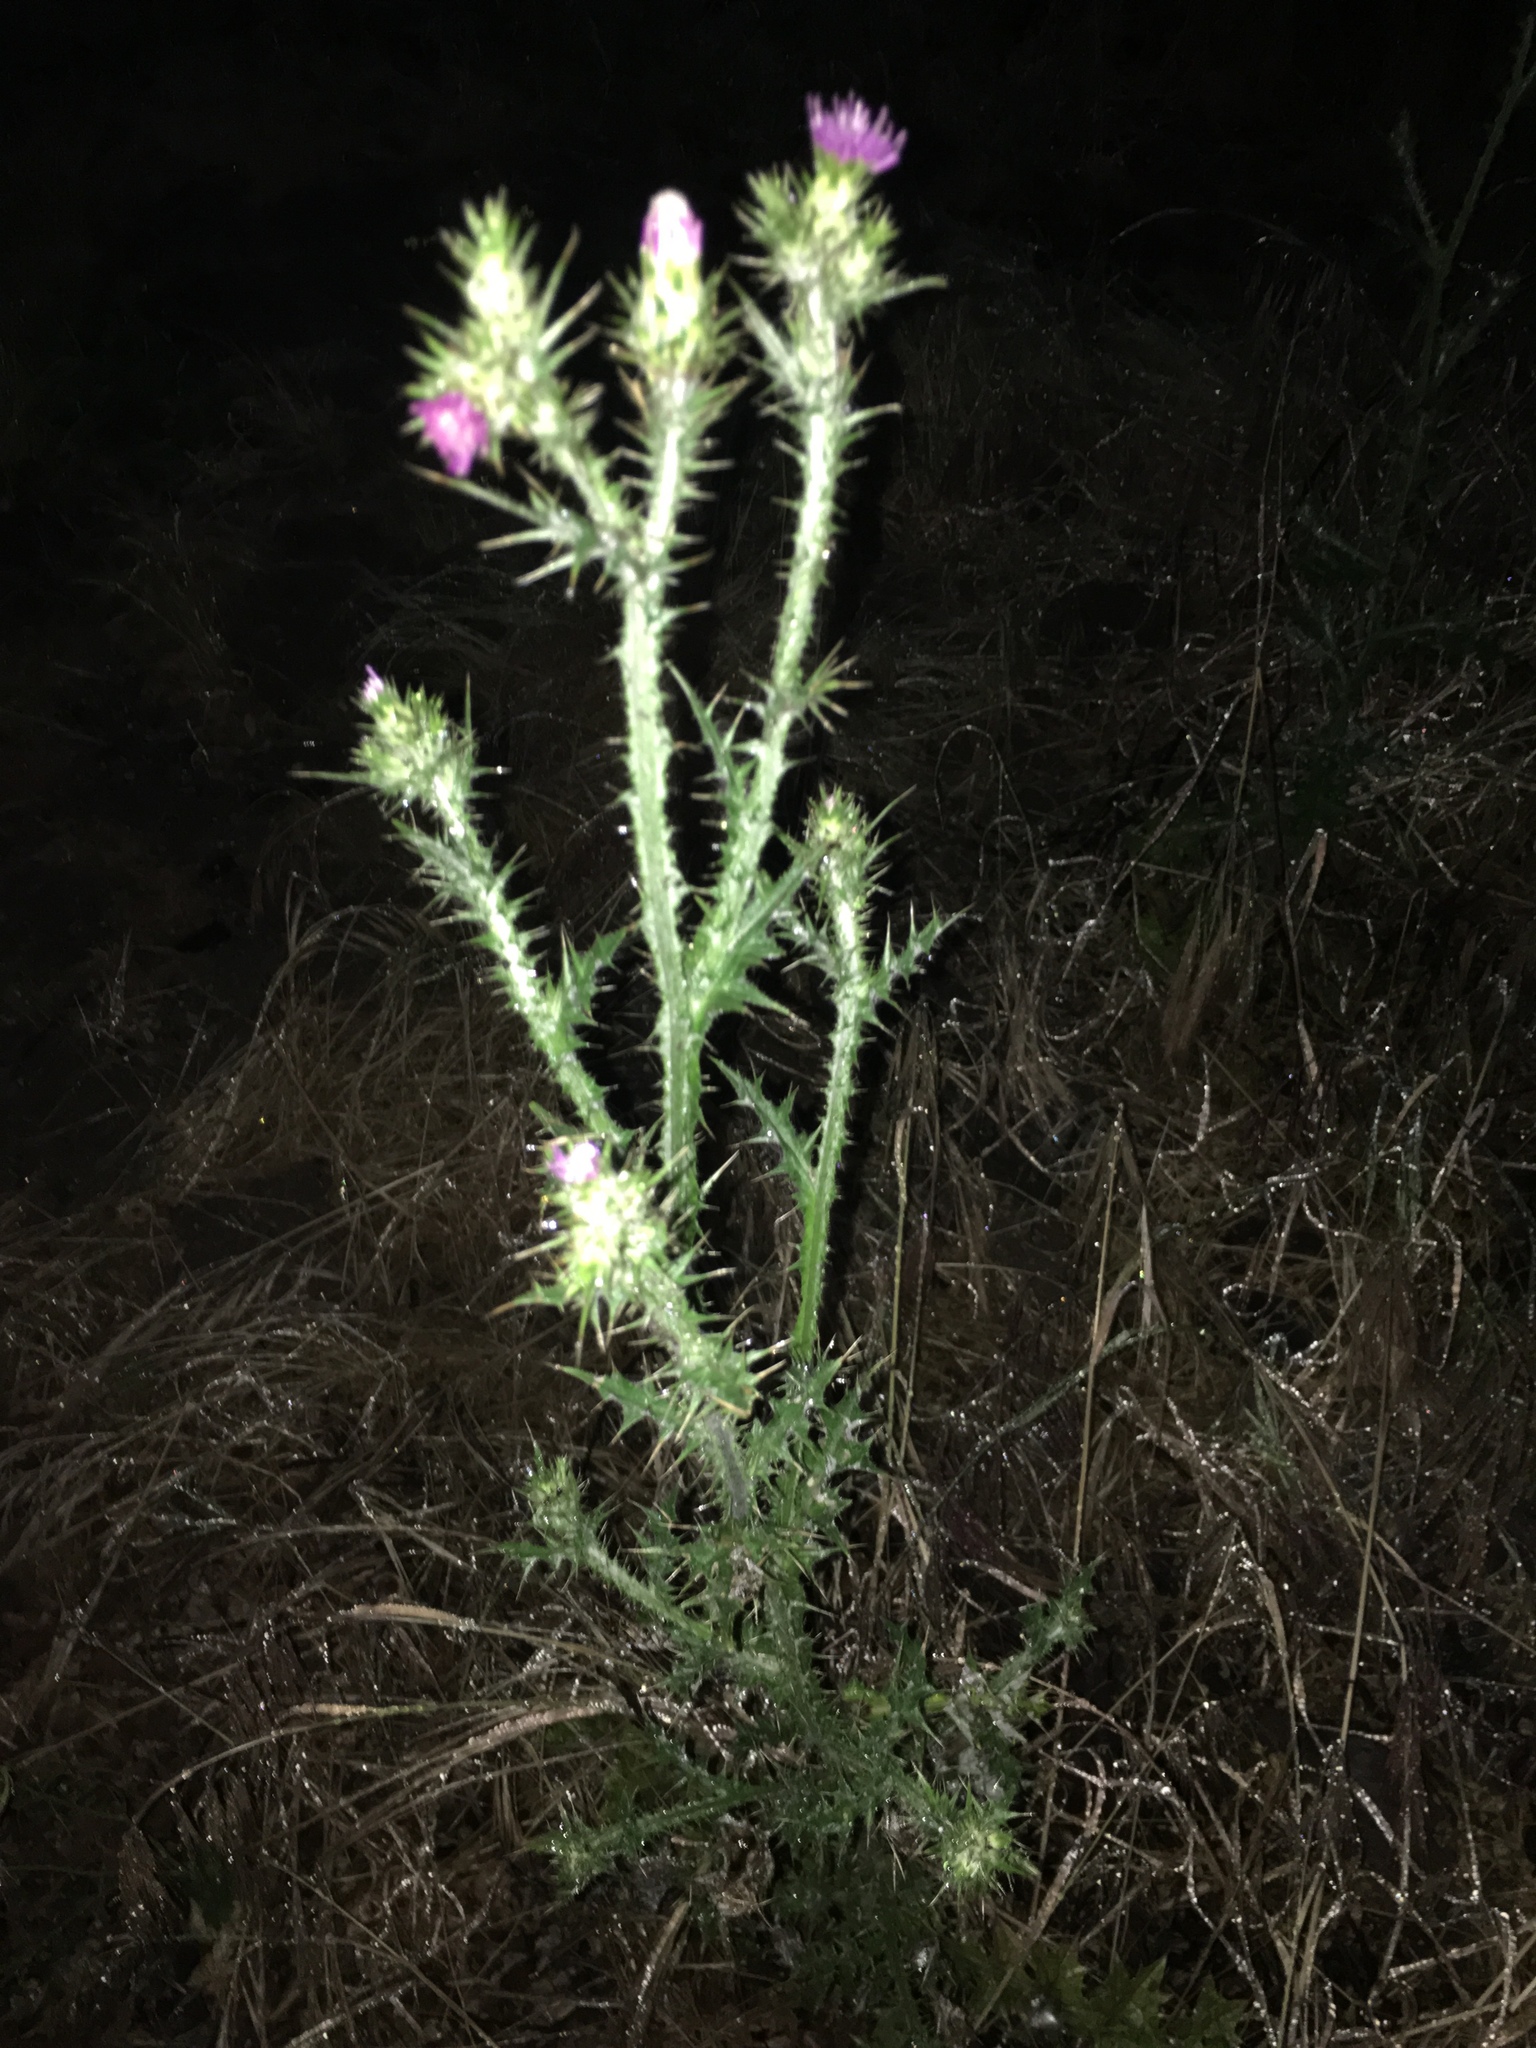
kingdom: Plantae
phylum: Tracheophyta
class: Magnoliopsida
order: Asterales
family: Asteraceae
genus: Carduus
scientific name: Carduus pycnocephalus
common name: Plymouth thistle
